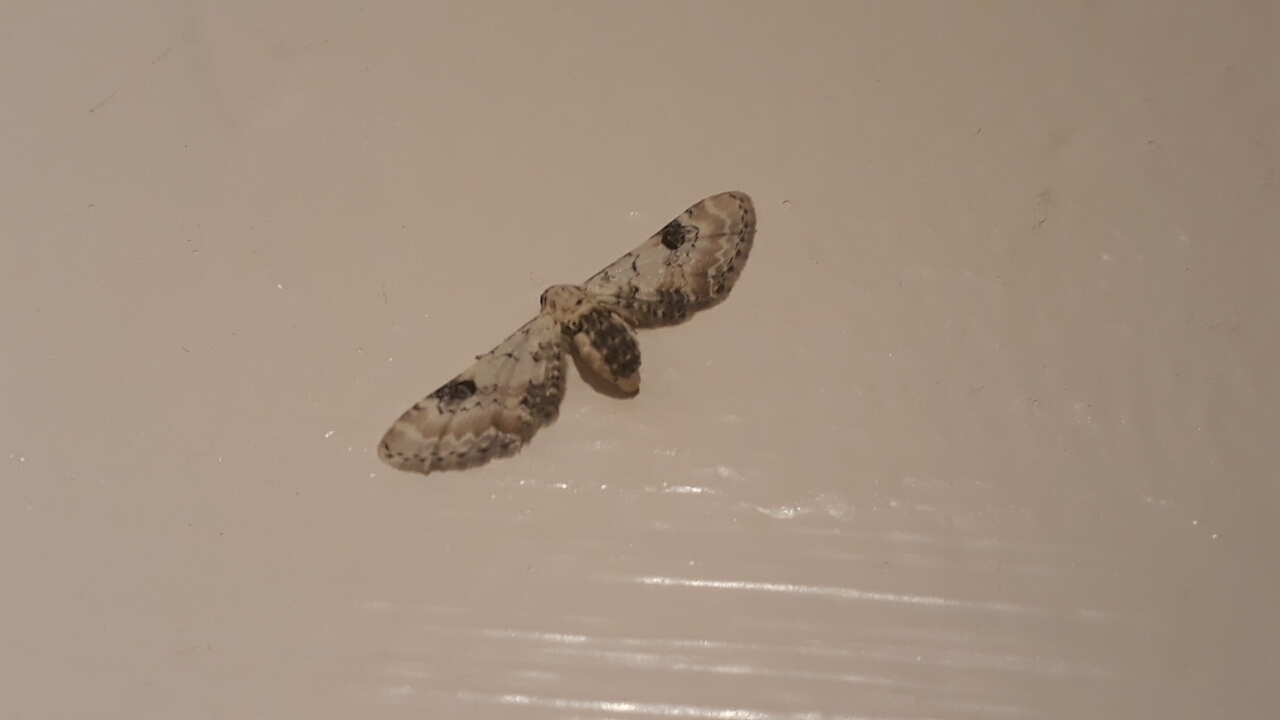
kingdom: Animalia
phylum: Arthropoda
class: Insecta
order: Lepidoptera
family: Geometridae
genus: Eupithecia
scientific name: Eupithecia centaureata
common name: Lime-speck pug
